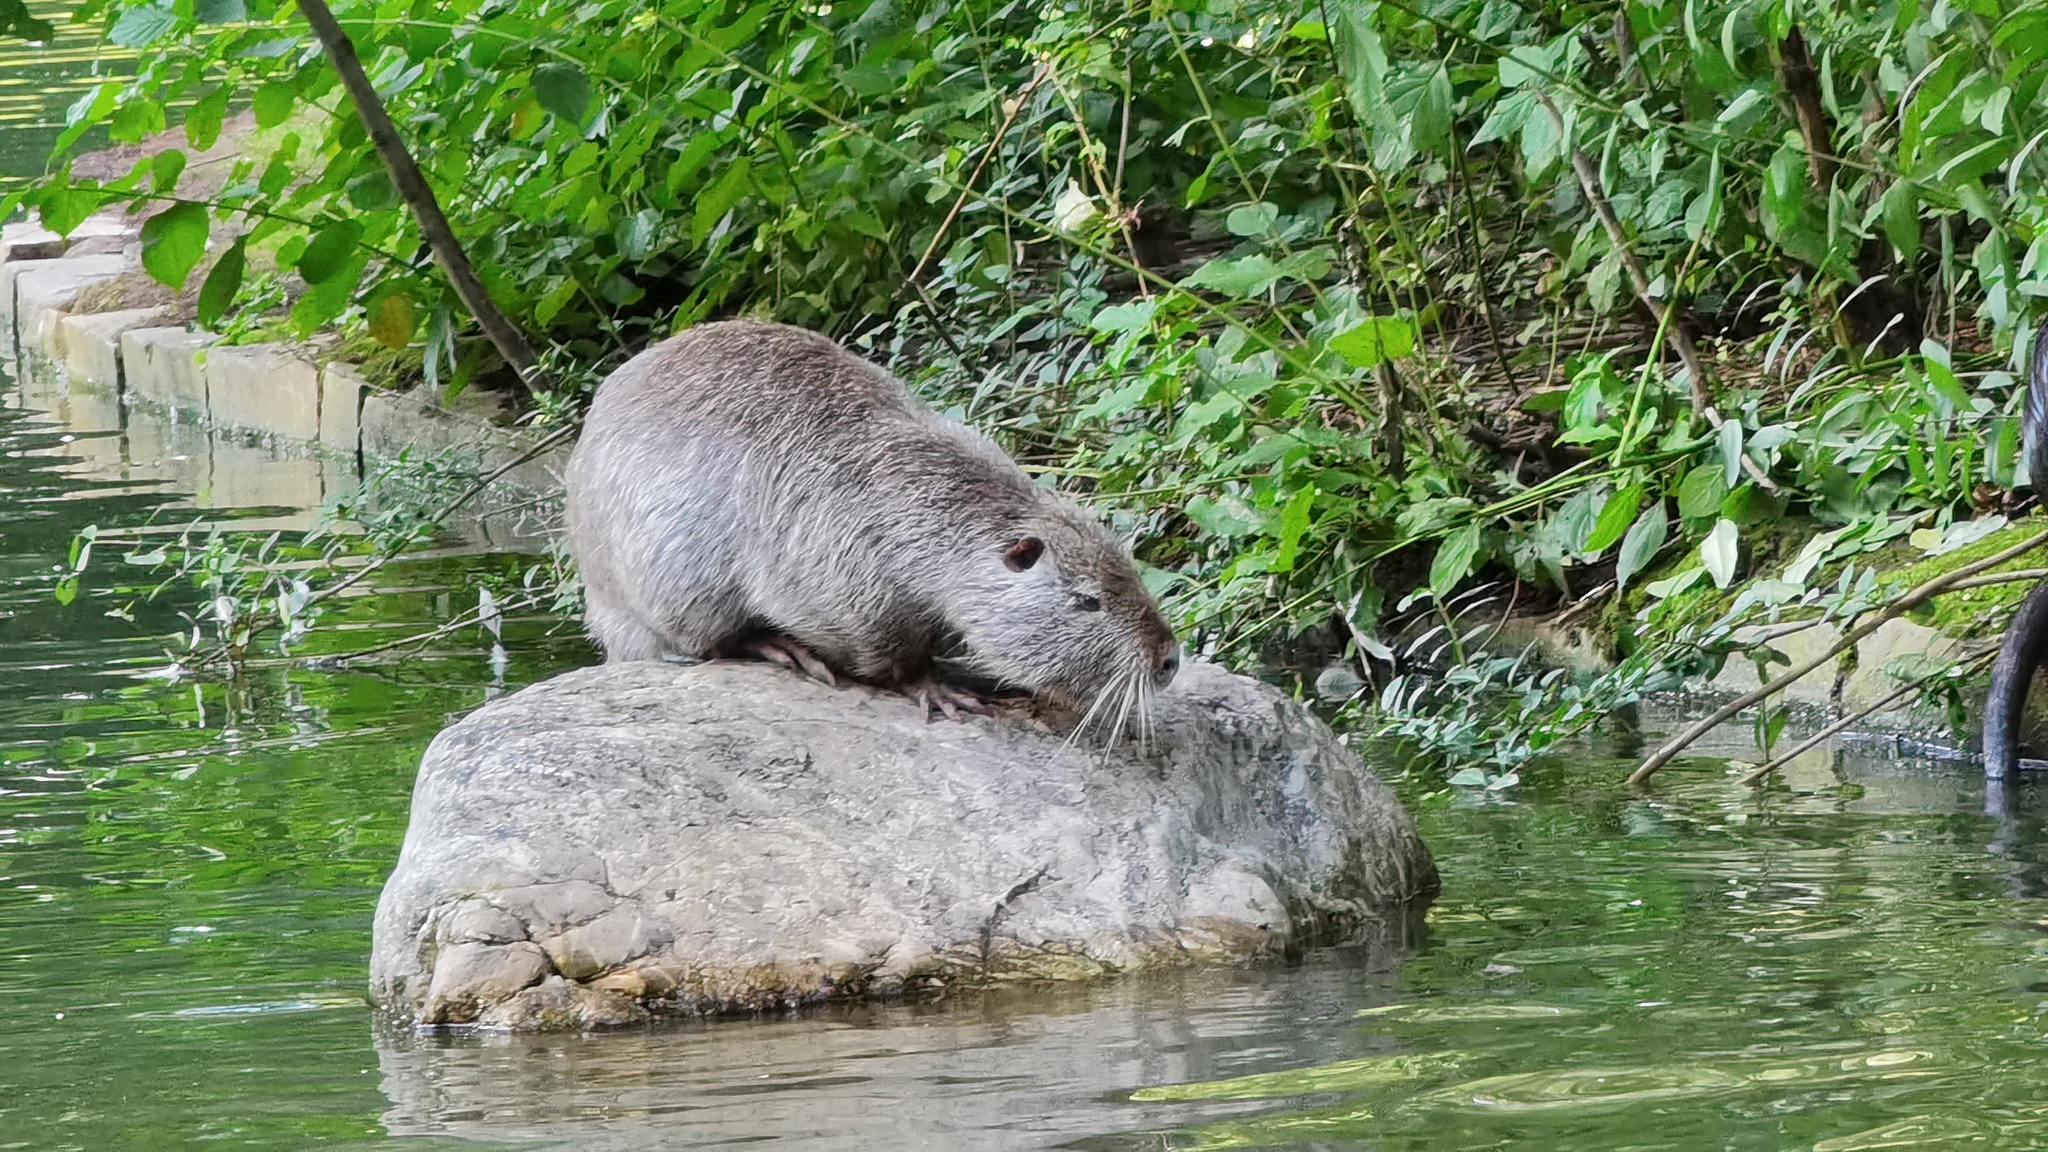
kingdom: Animalia
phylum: Chordata
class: Mammalia
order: Rodentia
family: Myocastoridae
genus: Myocastor
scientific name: Myocastor coypus
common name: Coypu
